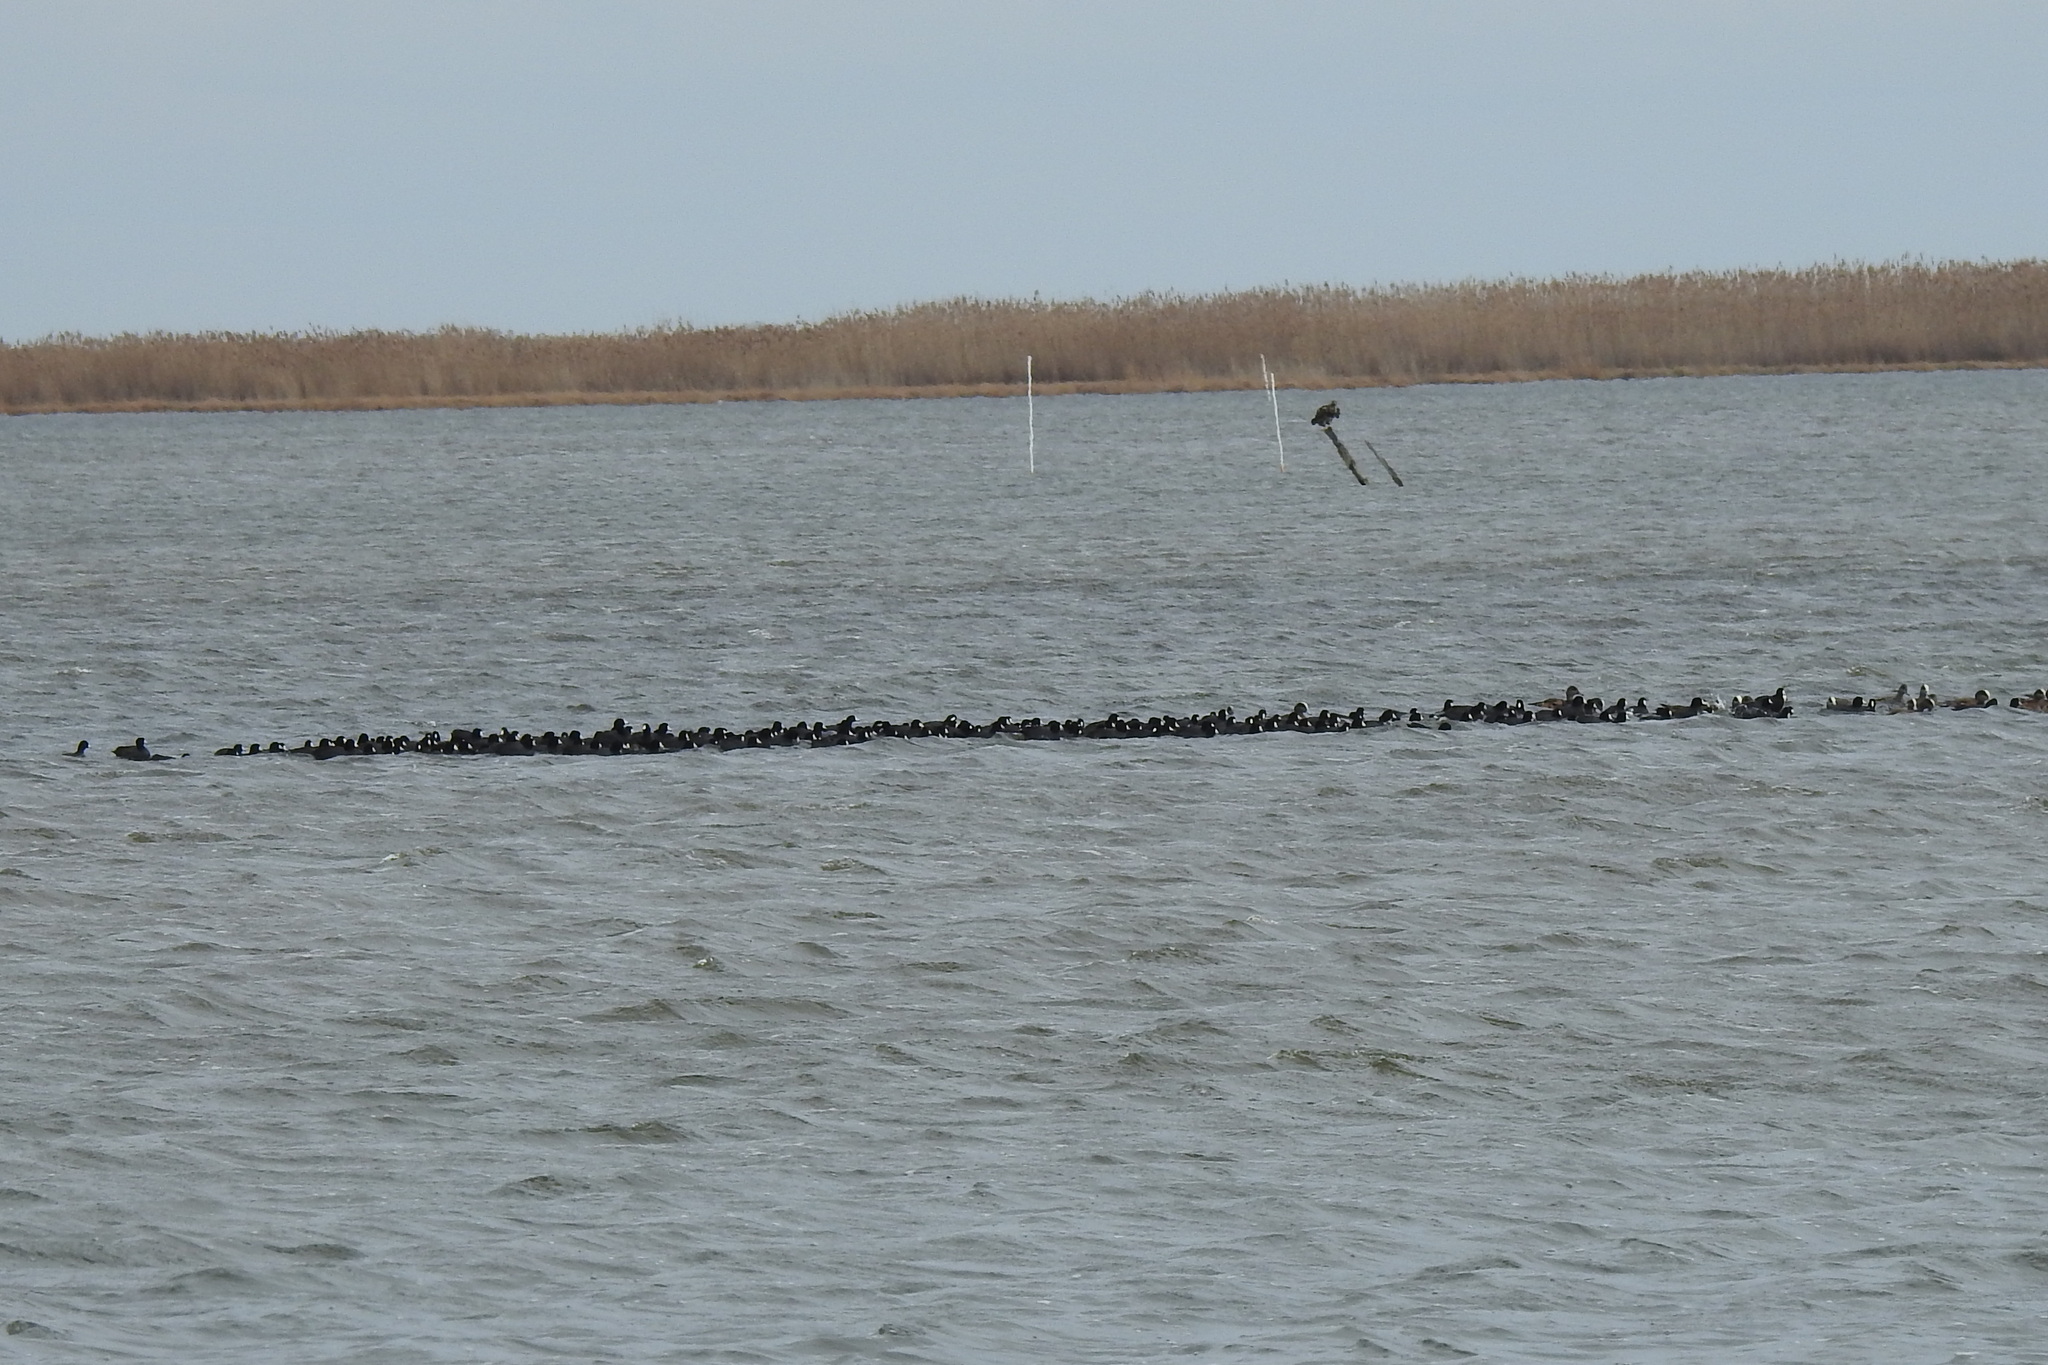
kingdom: Animalia
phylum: Chordata
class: Aves
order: Gruiformes
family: Rallidae
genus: Fulica
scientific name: Fulica americana
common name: American coot
